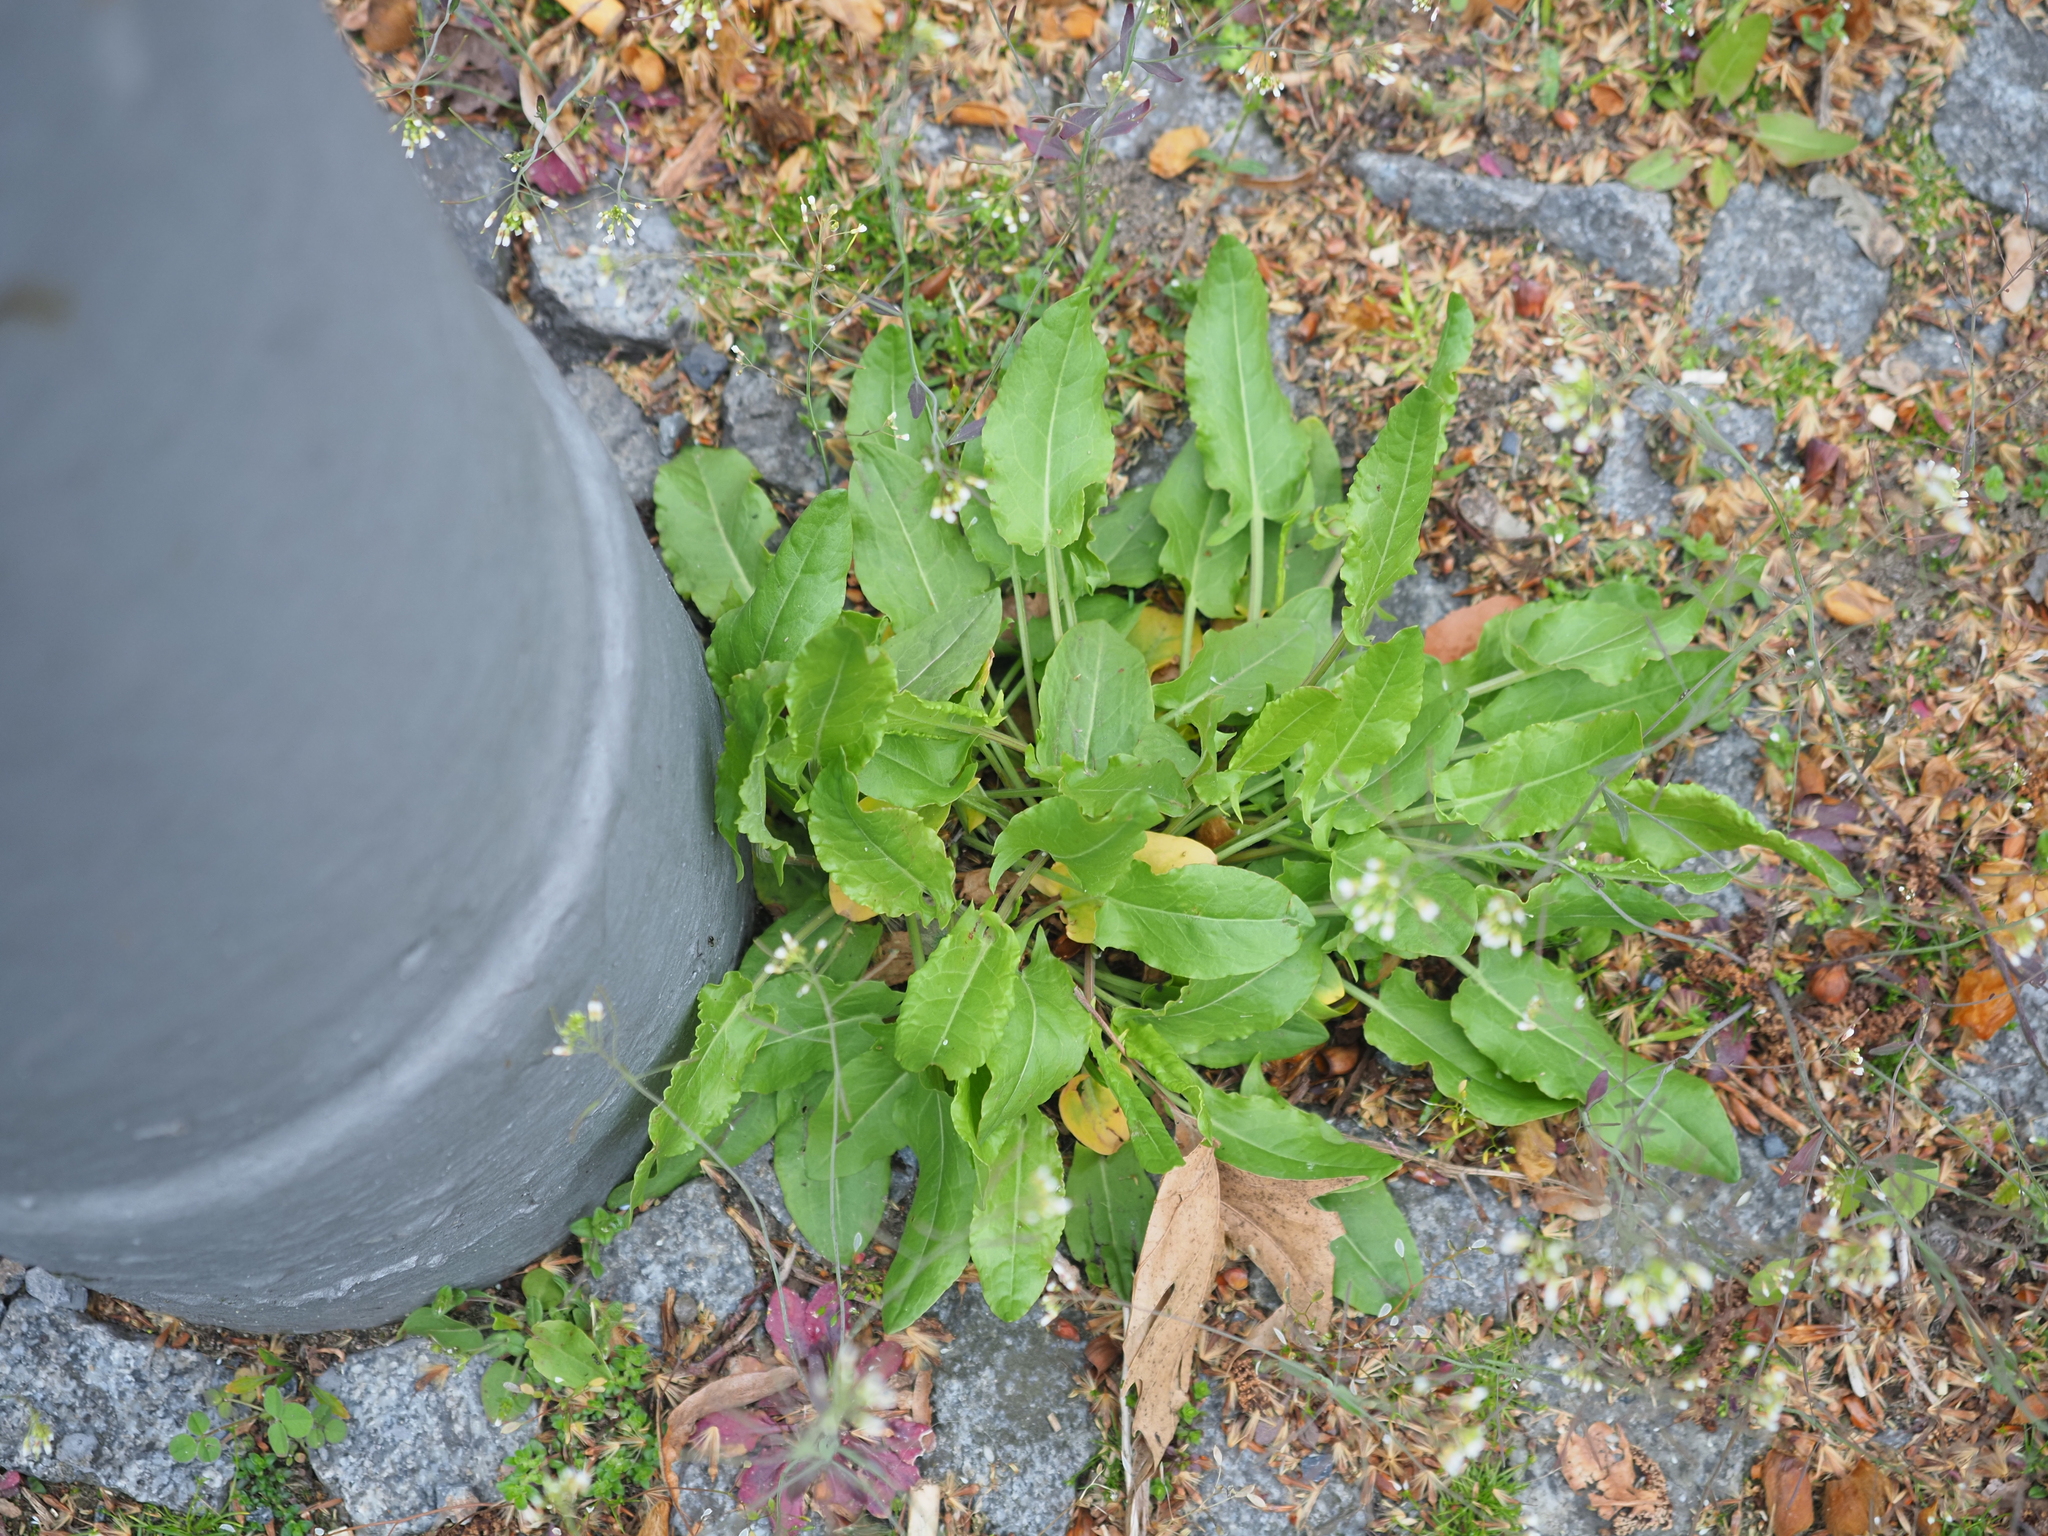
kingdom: Plantae
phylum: Tracheophyta
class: Magnoliopsida
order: Caryophyllales
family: Polygonaceae
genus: Rumex
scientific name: Rumex acetosa
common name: Garden sorrel
